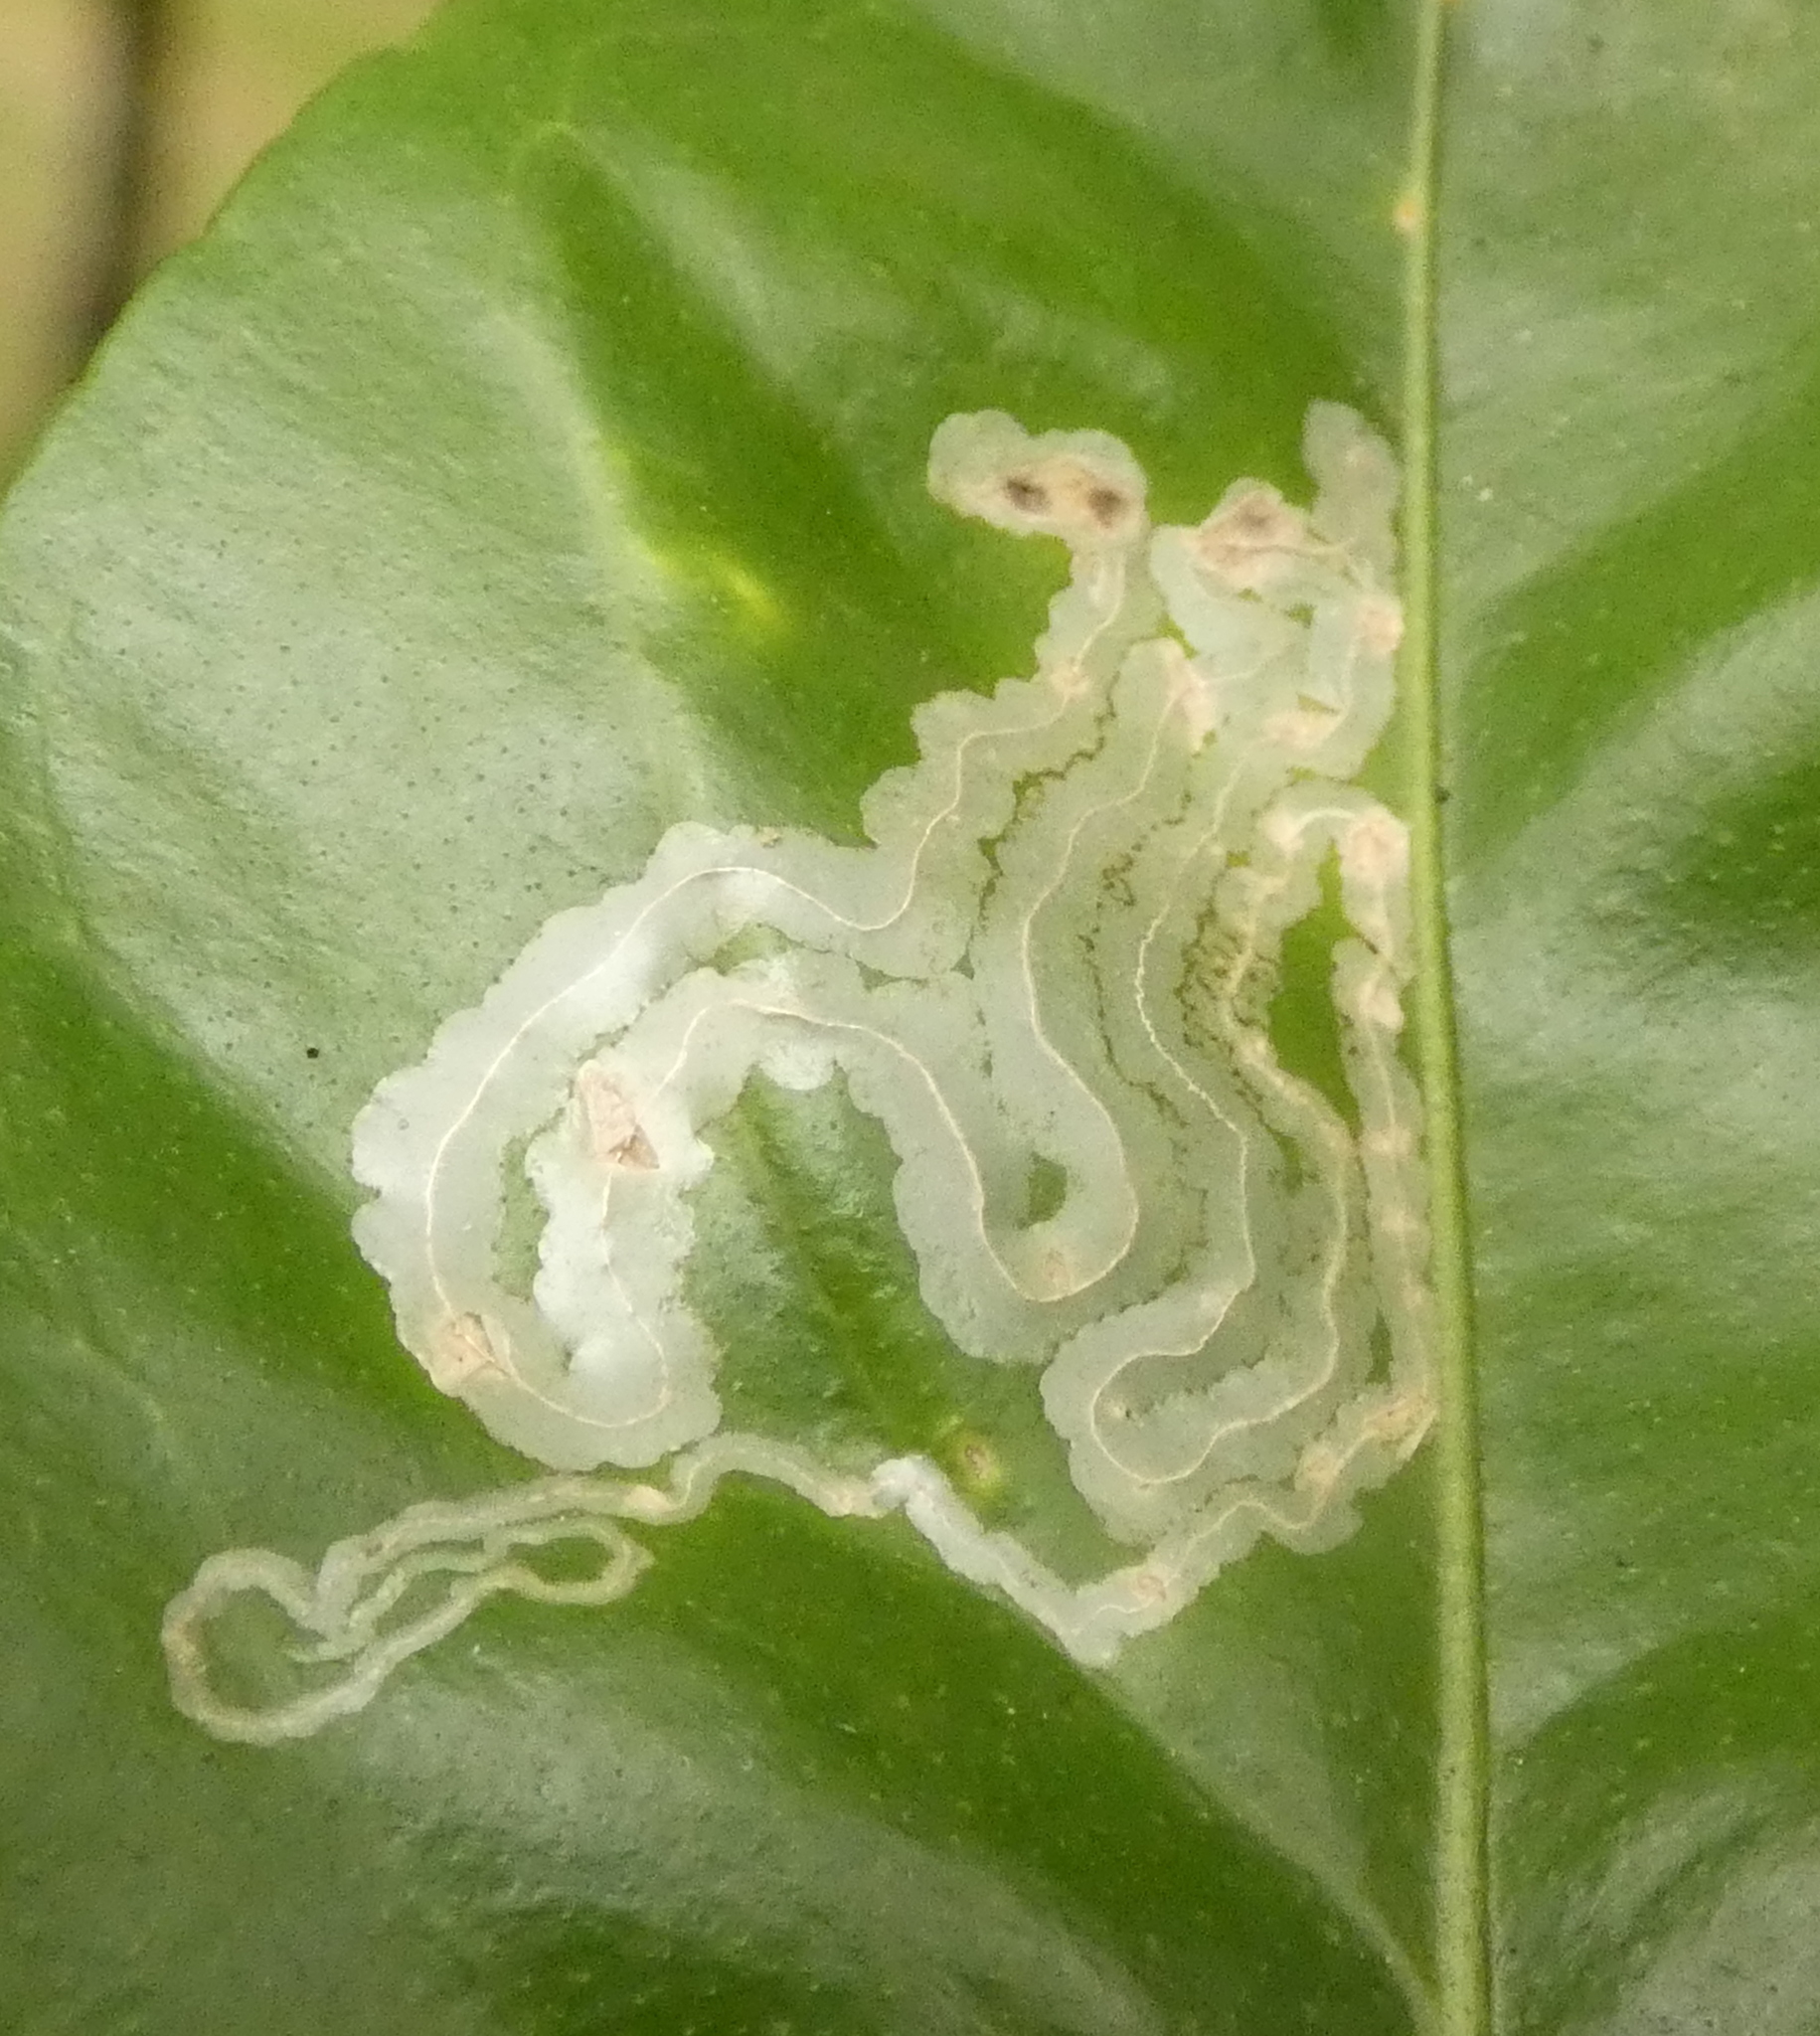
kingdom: Animalia
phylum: Arthropoda
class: Insecta
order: Lepidoptera
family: Gracillariidae
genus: Phyllocnistis
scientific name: Phyllocnistis citrella
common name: Citrus leafminer
